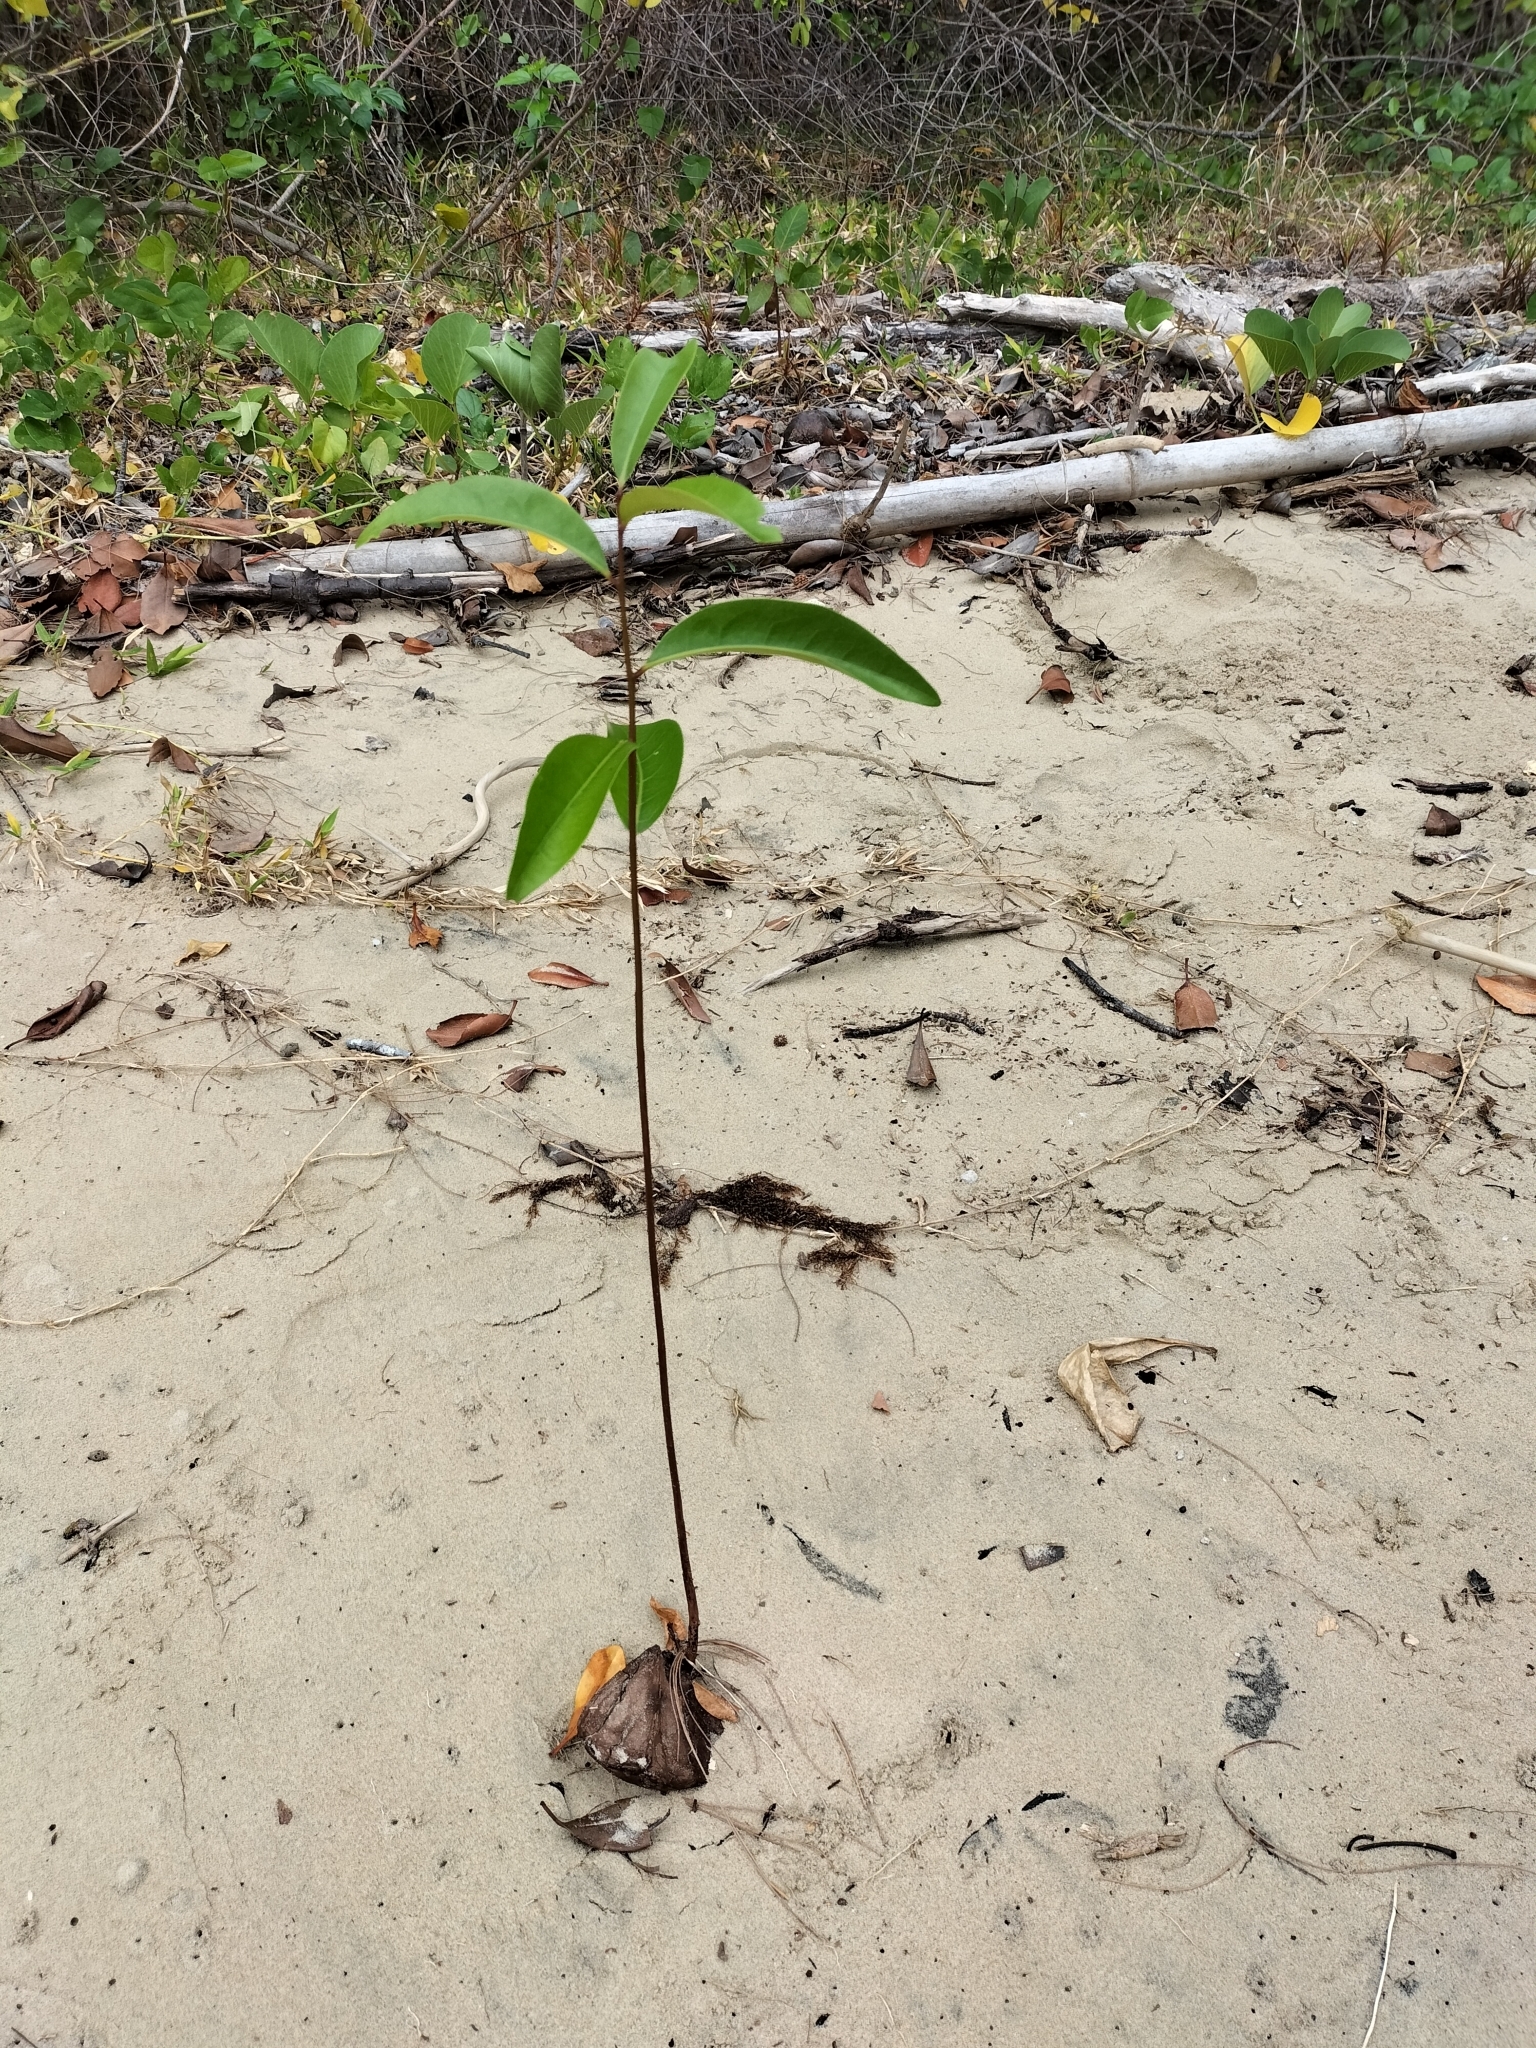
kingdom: Plantae
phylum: Tracheophyta
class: Magnoliopsida
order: Sapindales
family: Meliaceae
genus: Xylocarpus
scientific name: Xylocarpus granatum
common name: Apple mangrove
